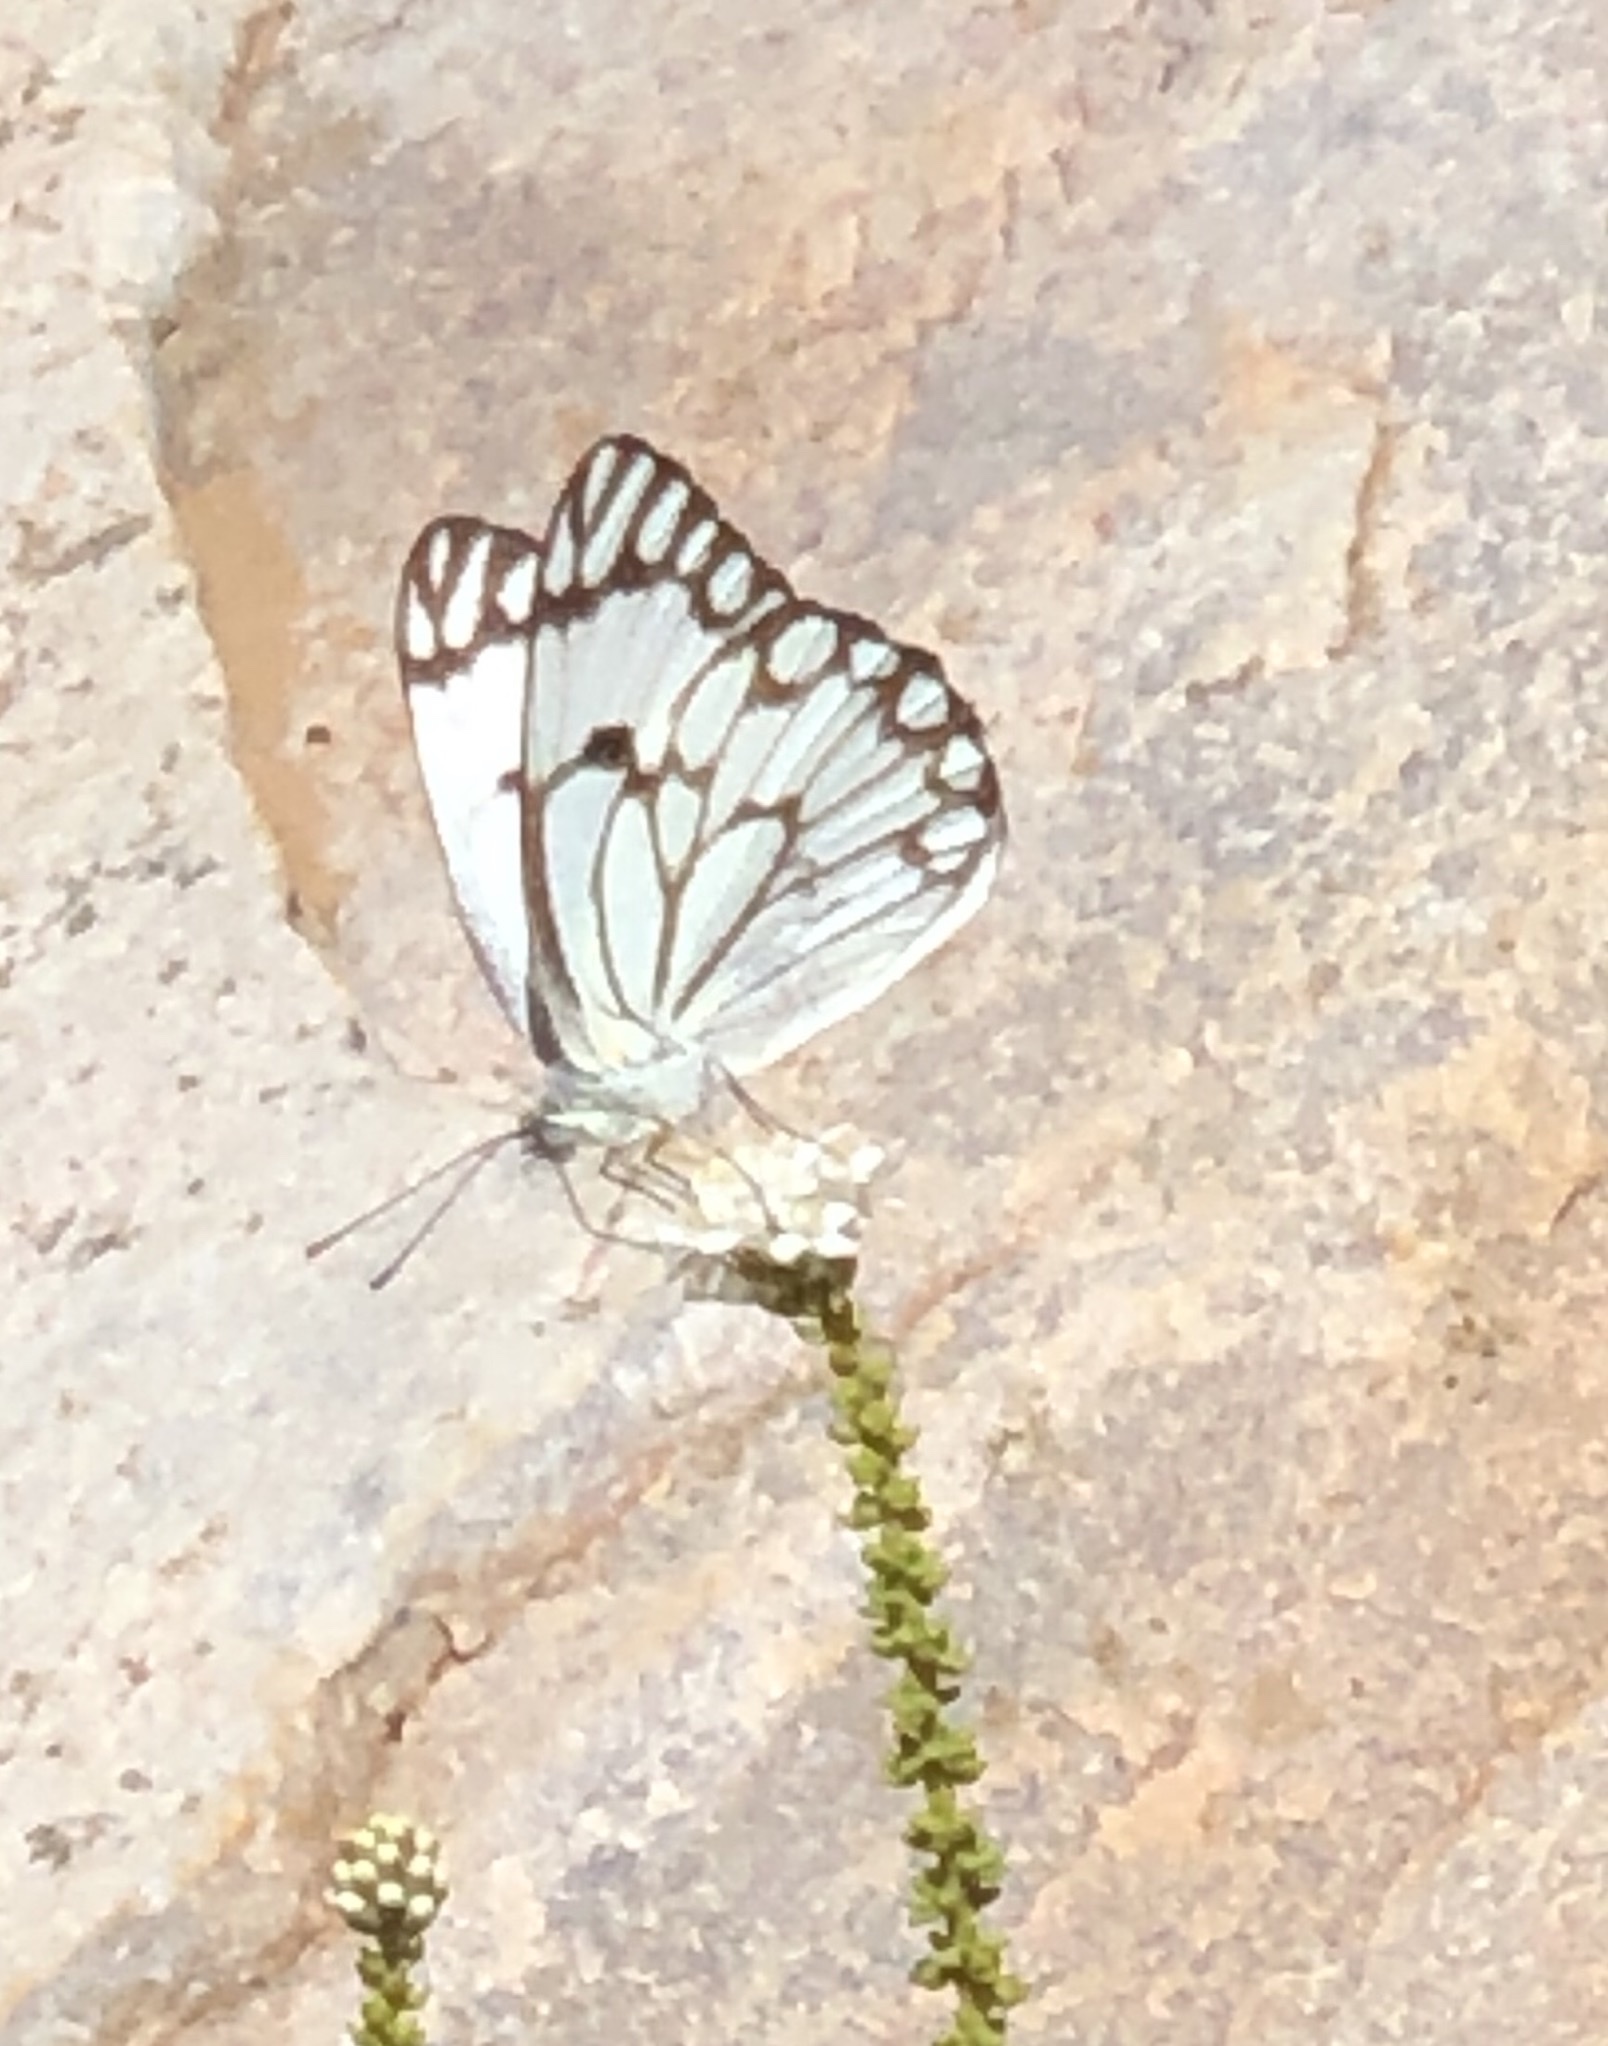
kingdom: Animalia
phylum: Arthropoda
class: Insecta
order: Lepidoptera
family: Pieridae
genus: Belenois
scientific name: Belenois aurota
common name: Brown-veined white
